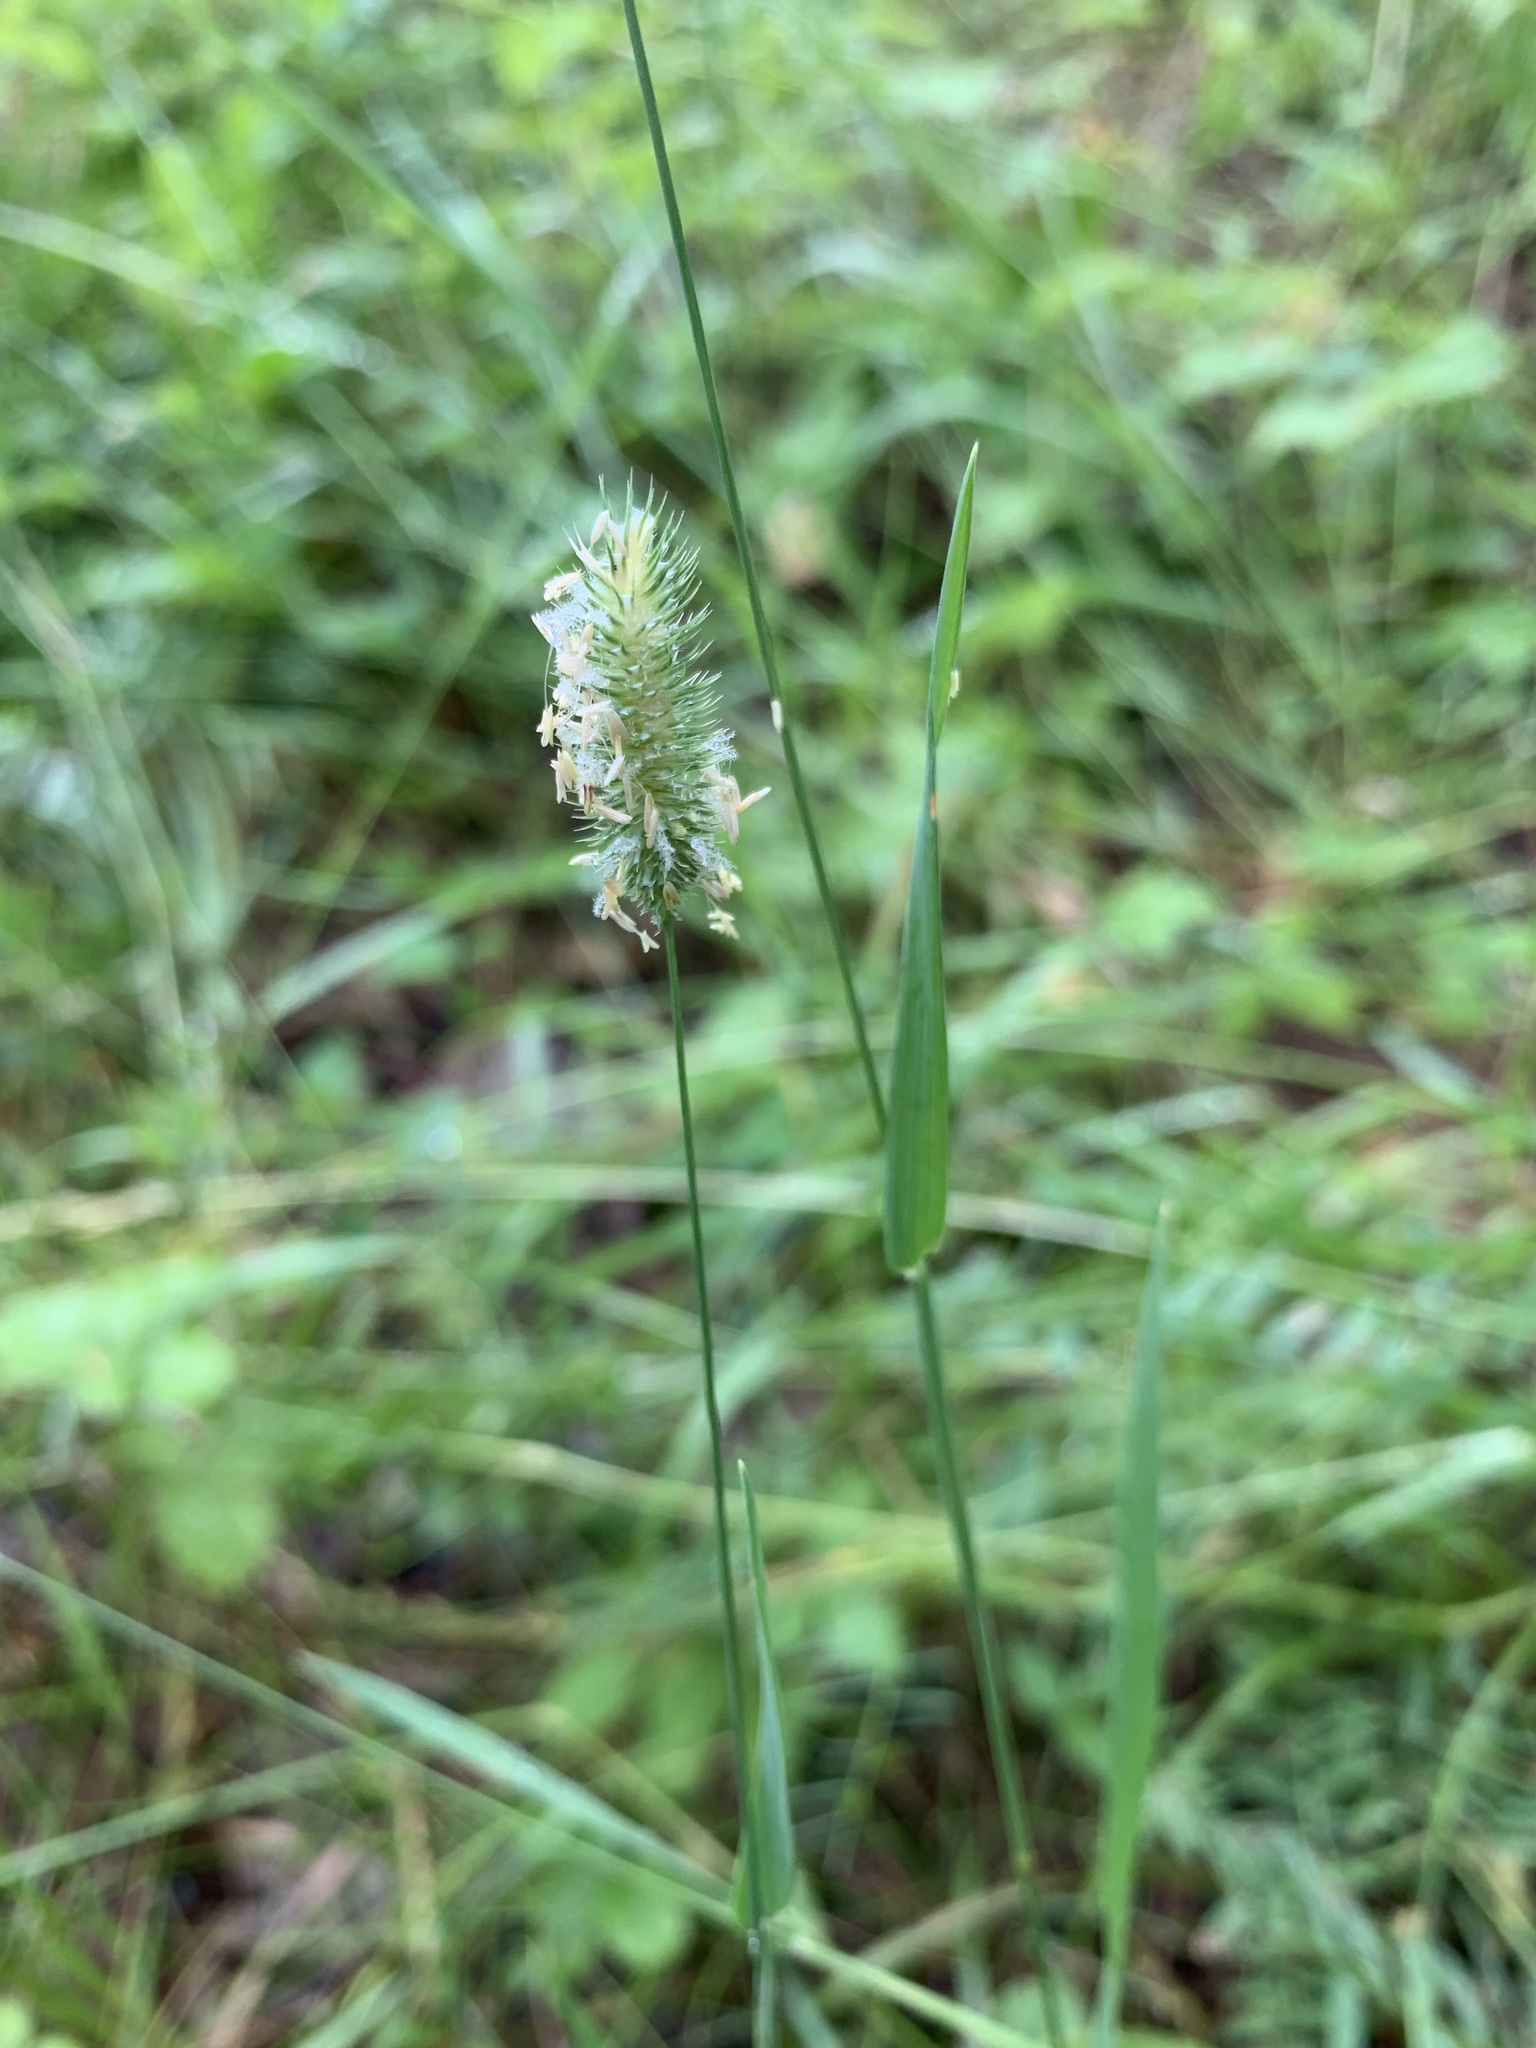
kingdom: Plantae
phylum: Tracheophyta
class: Liliopsida
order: Poales
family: Poaceae
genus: Phleum
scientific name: Phleum pratense
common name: Timothy grass
